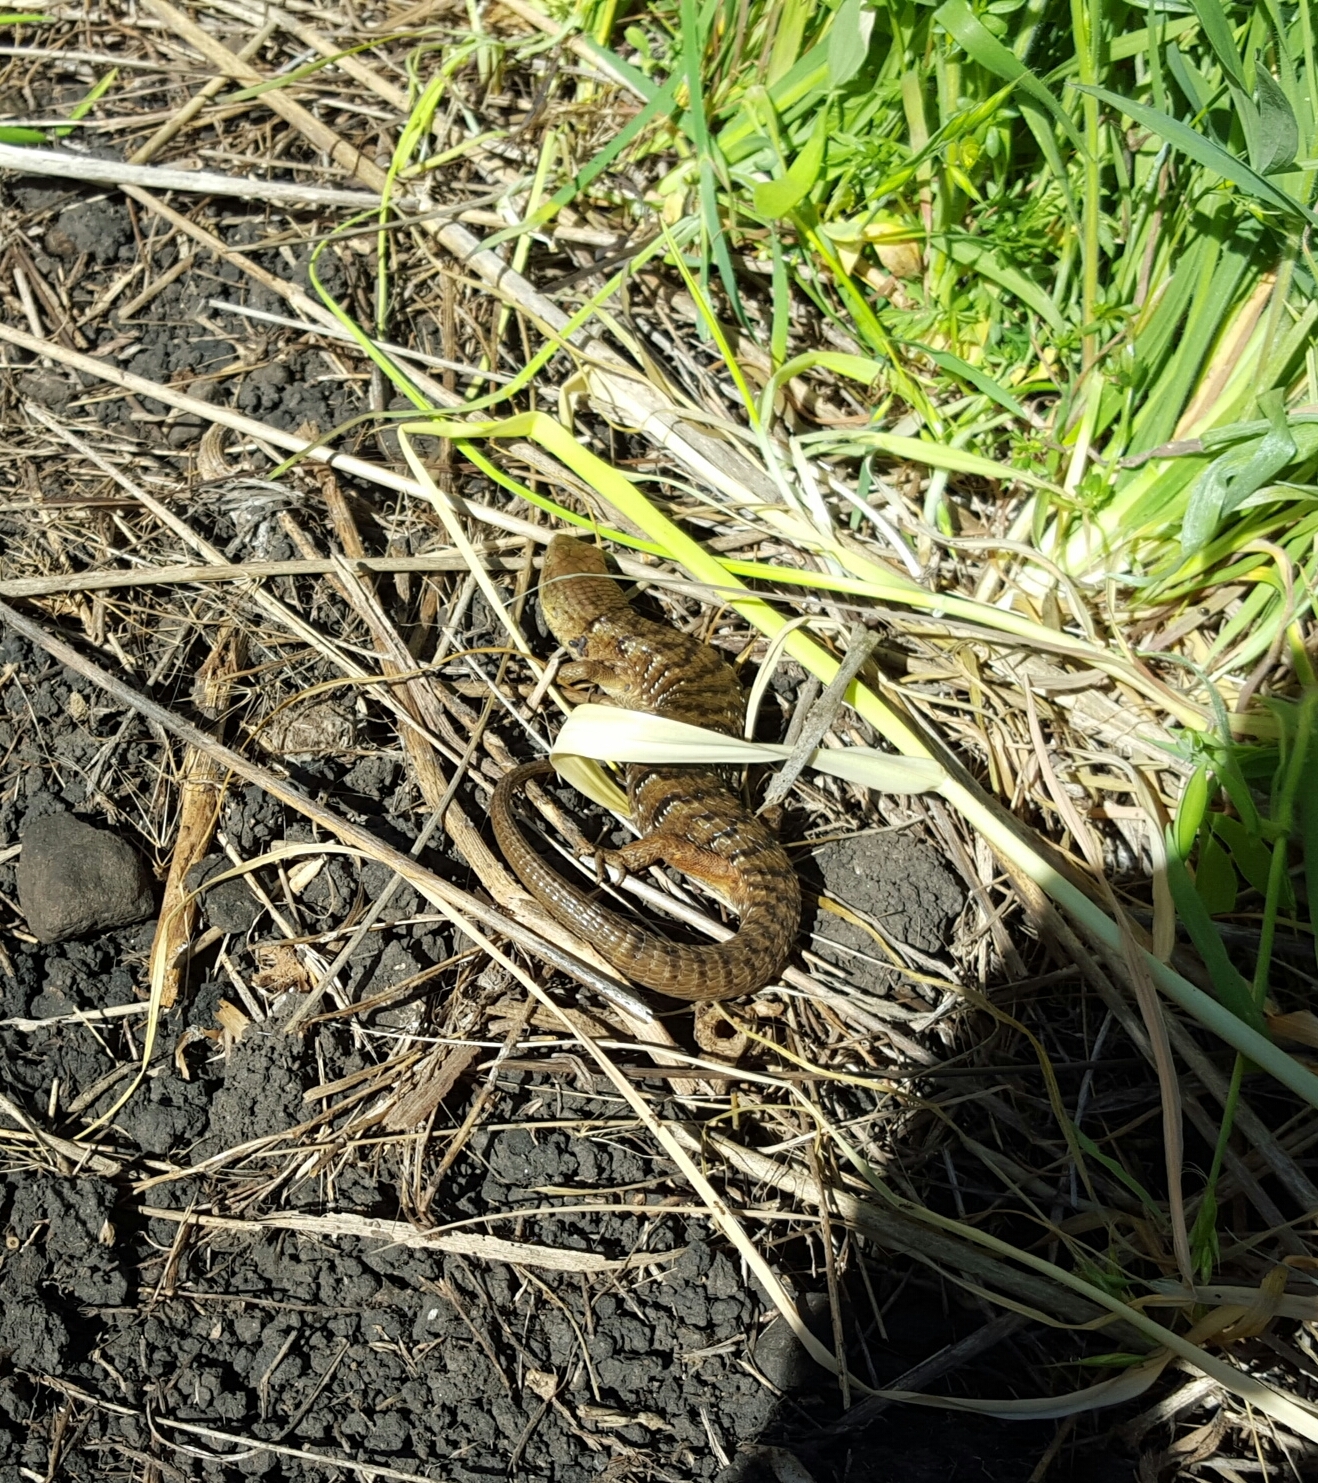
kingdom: Animalia
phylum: Chordata
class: Squamata
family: Anguidae
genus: Elgaria
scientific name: Elgaria multicarinata
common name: Southern alligator lizard
